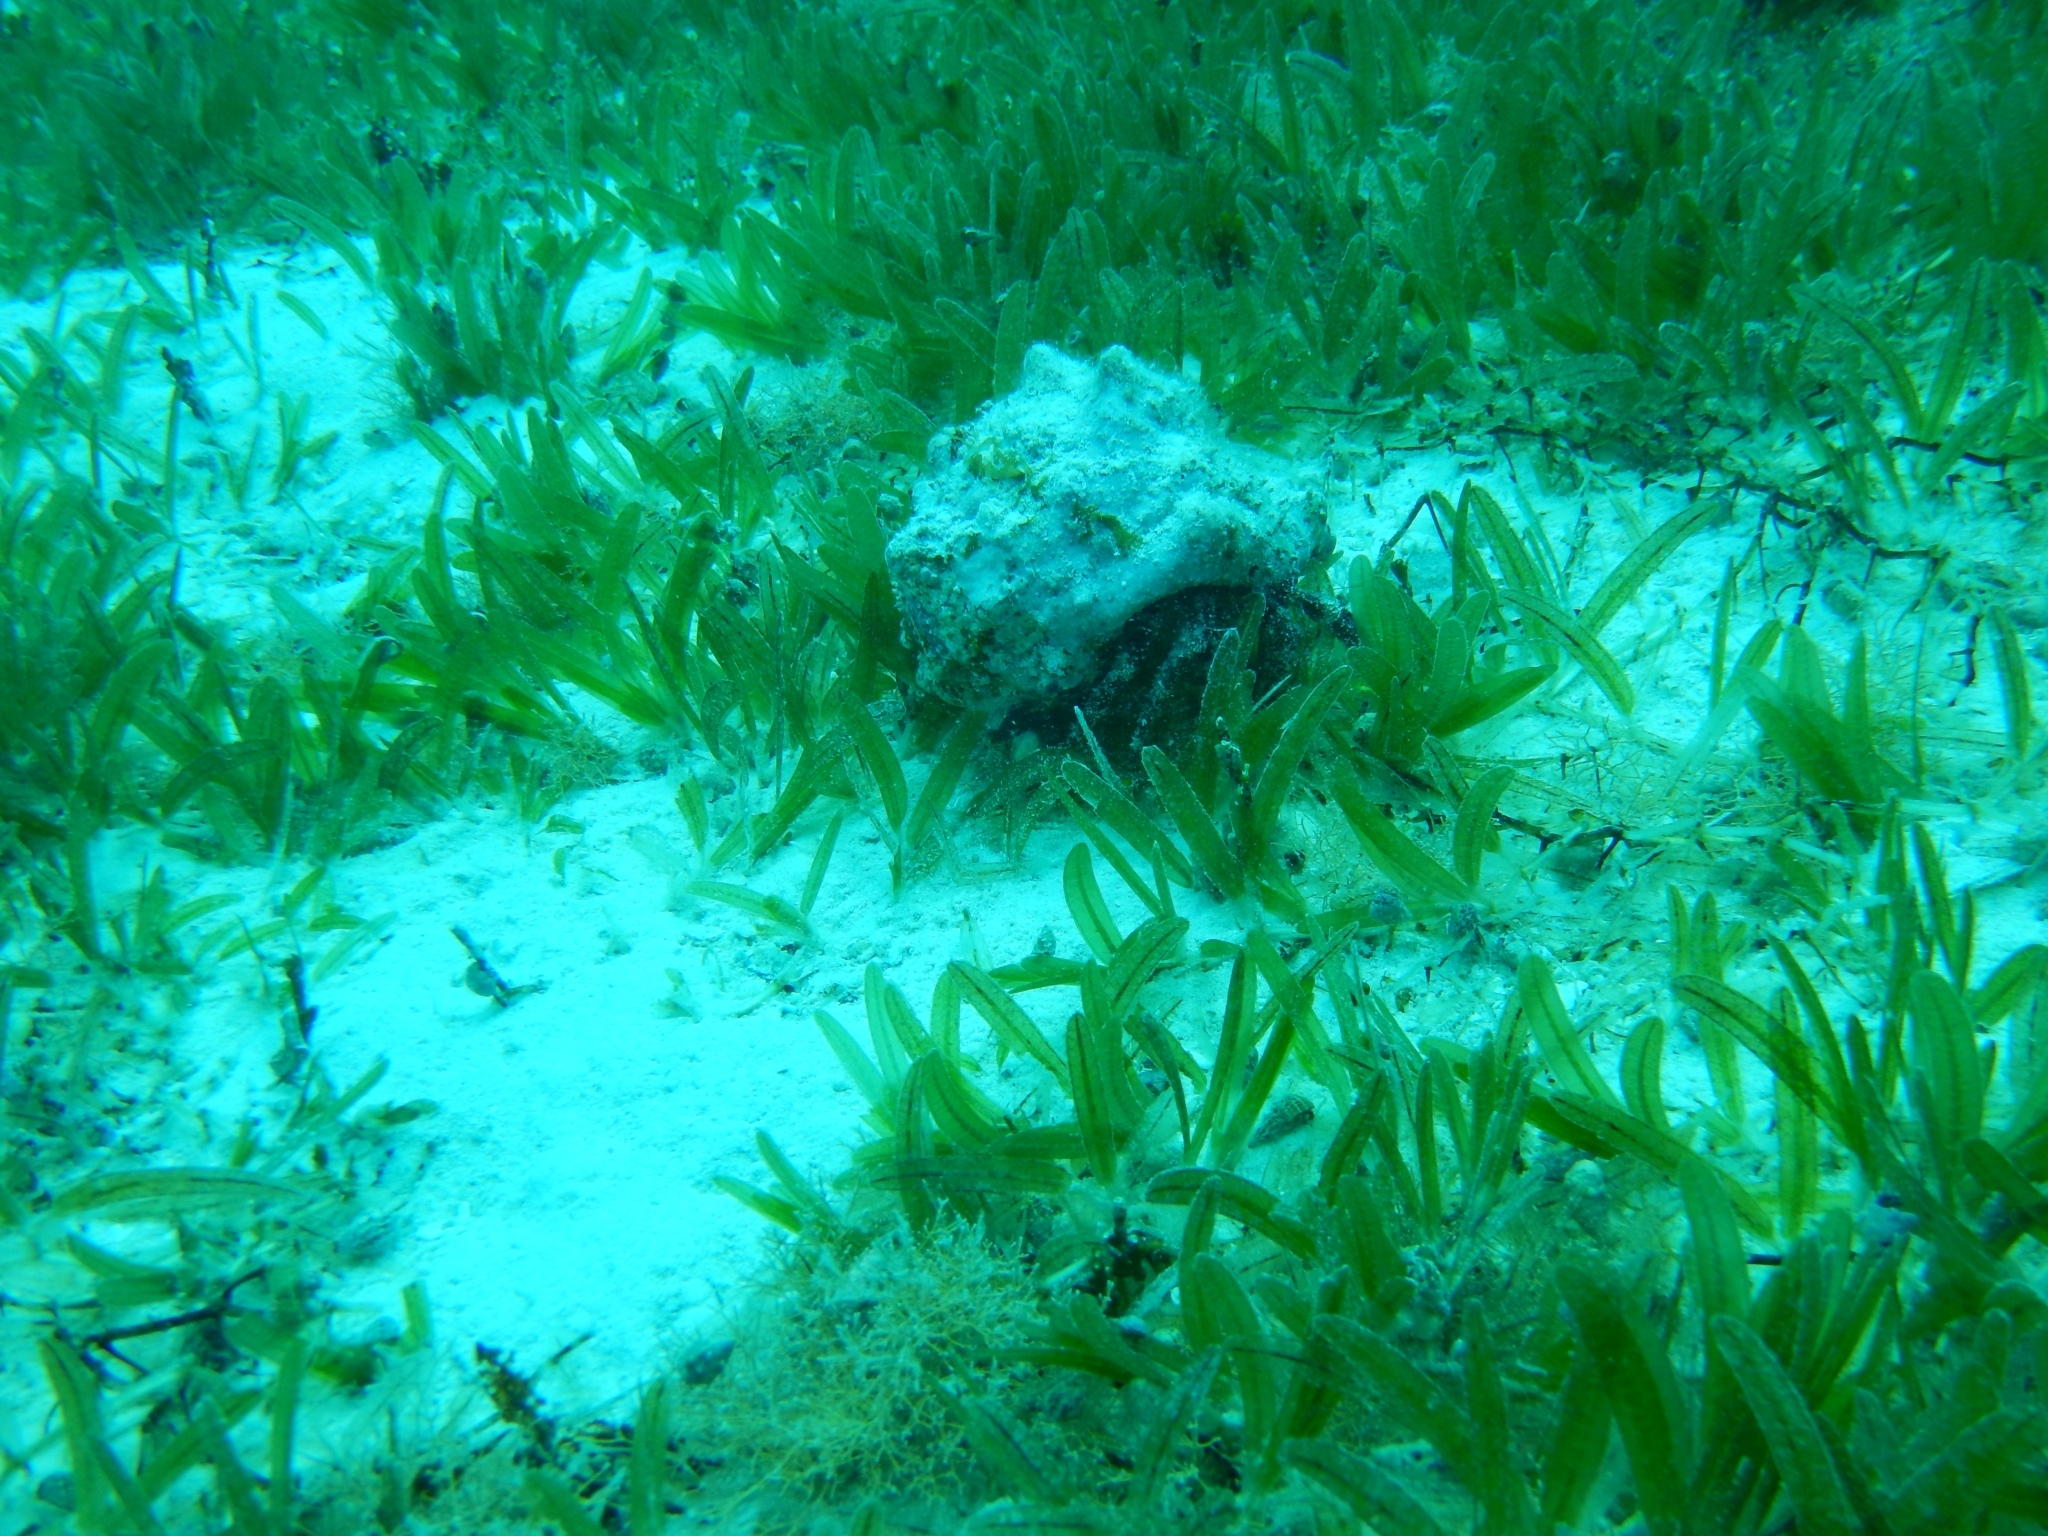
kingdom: Animalia
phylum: Arthropoda
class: Malacostraca
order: Decapoda
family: Diogenidae
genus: Petrochirus
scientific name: Petrochirus diogenes
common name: Giant hermit crab
